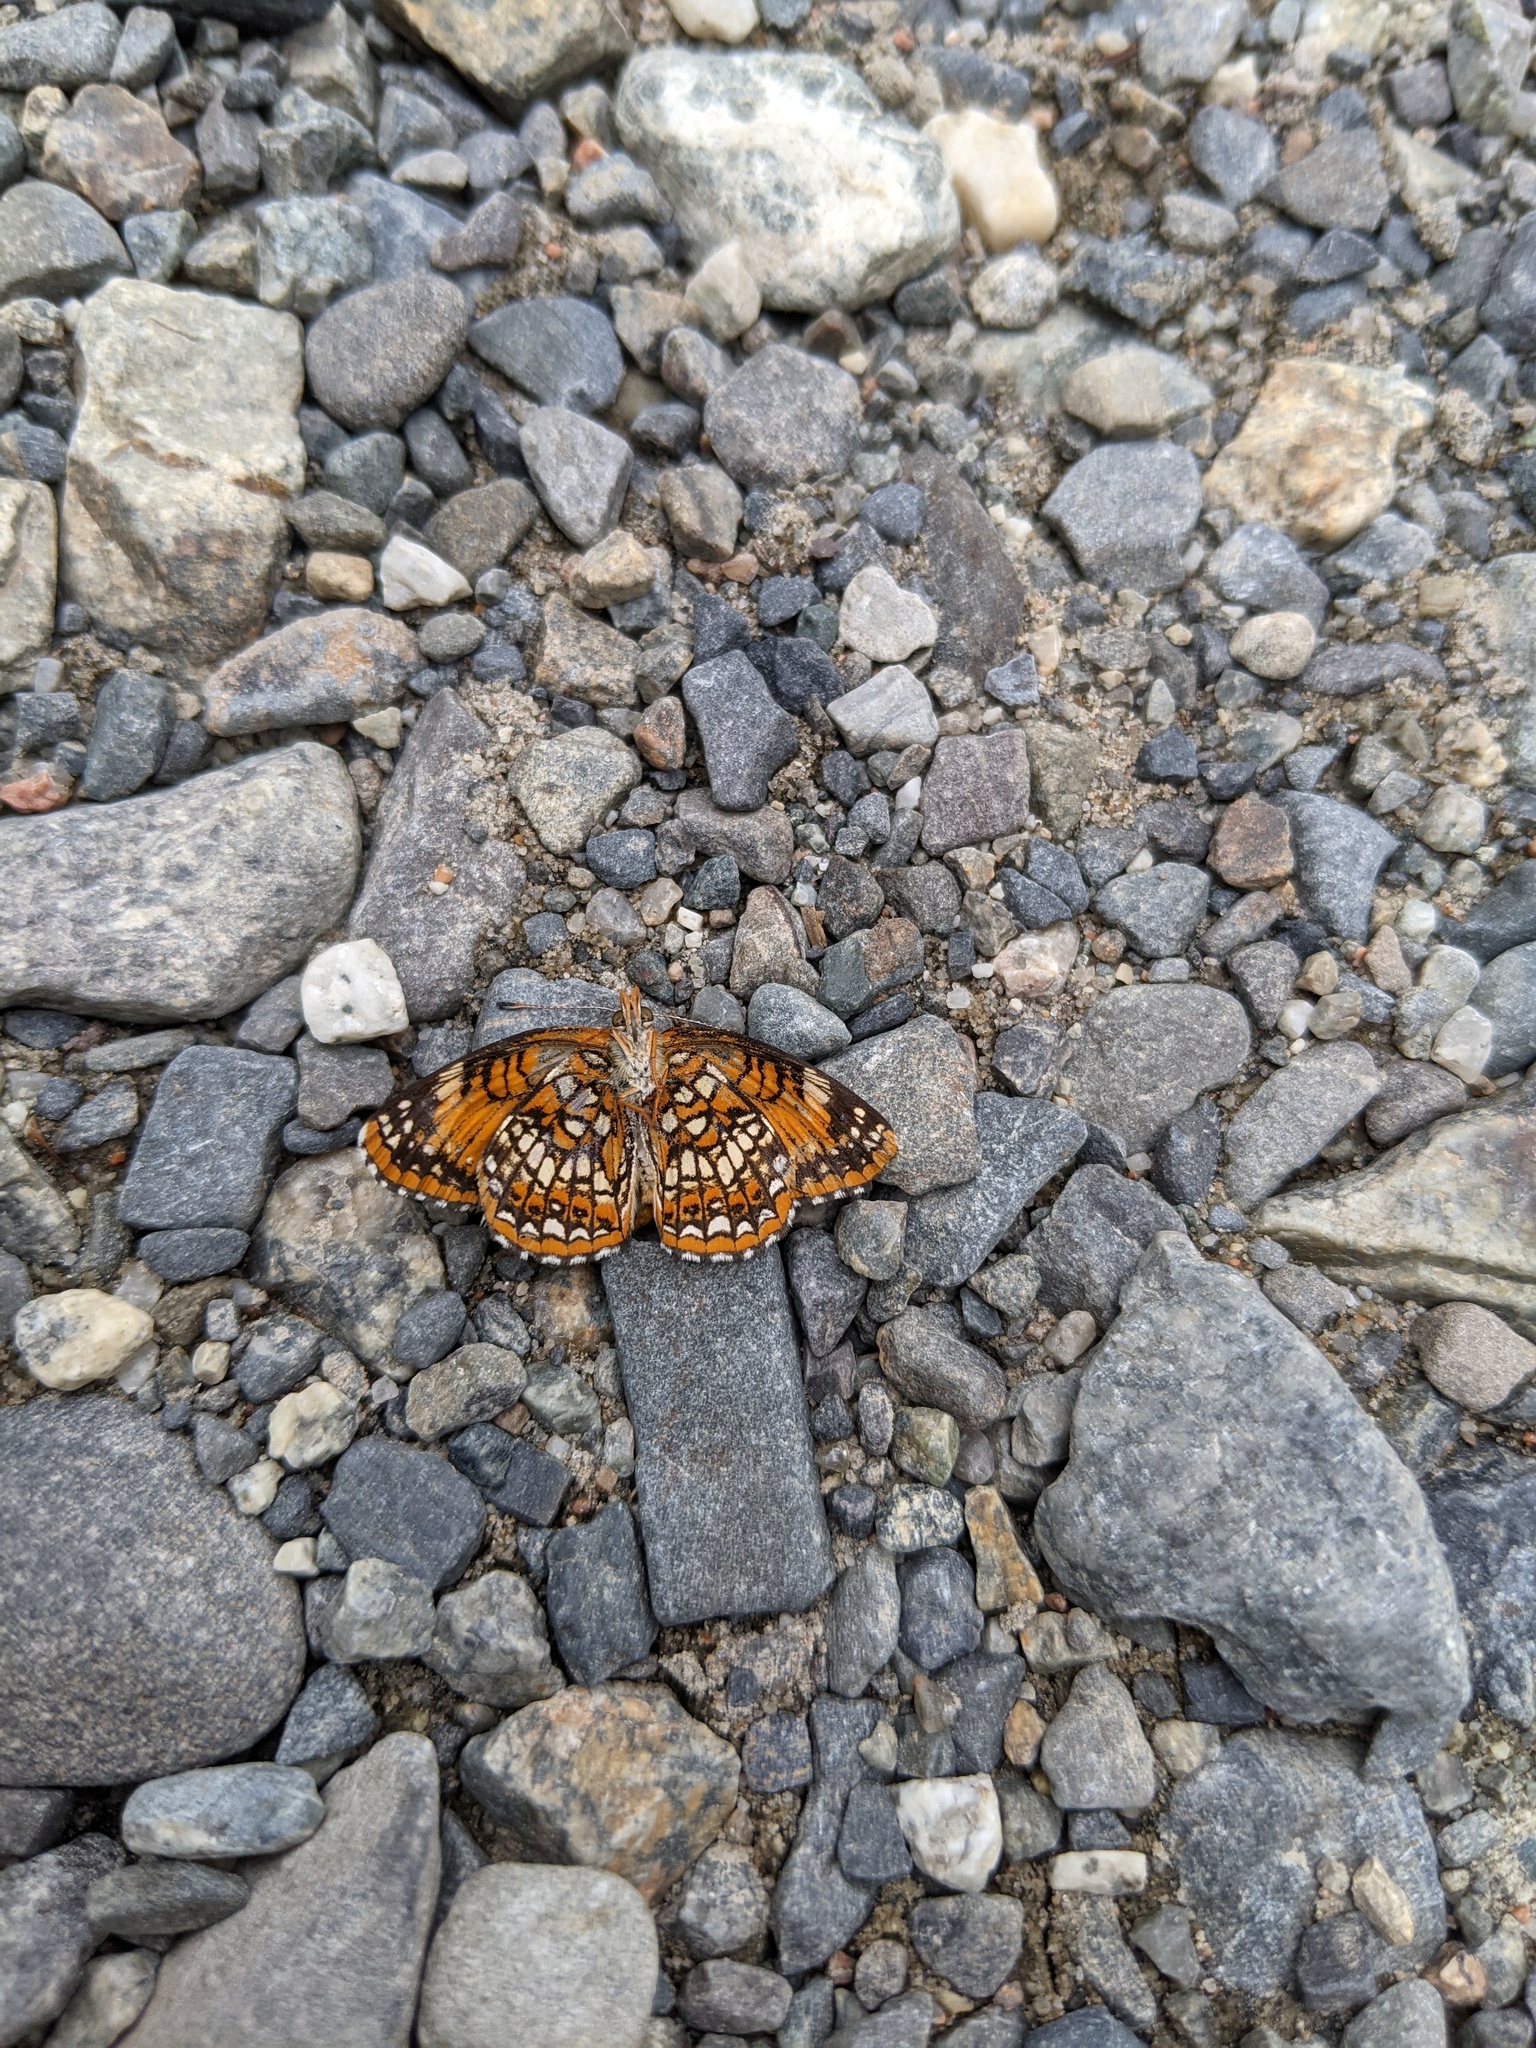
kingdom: Animalia
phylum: Arthropoda
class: Insecta
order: Lepidoptera
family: Nymphalidae
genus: Chlosyne
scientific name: Chlosyne harrisii
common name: Harris's checkerspot
